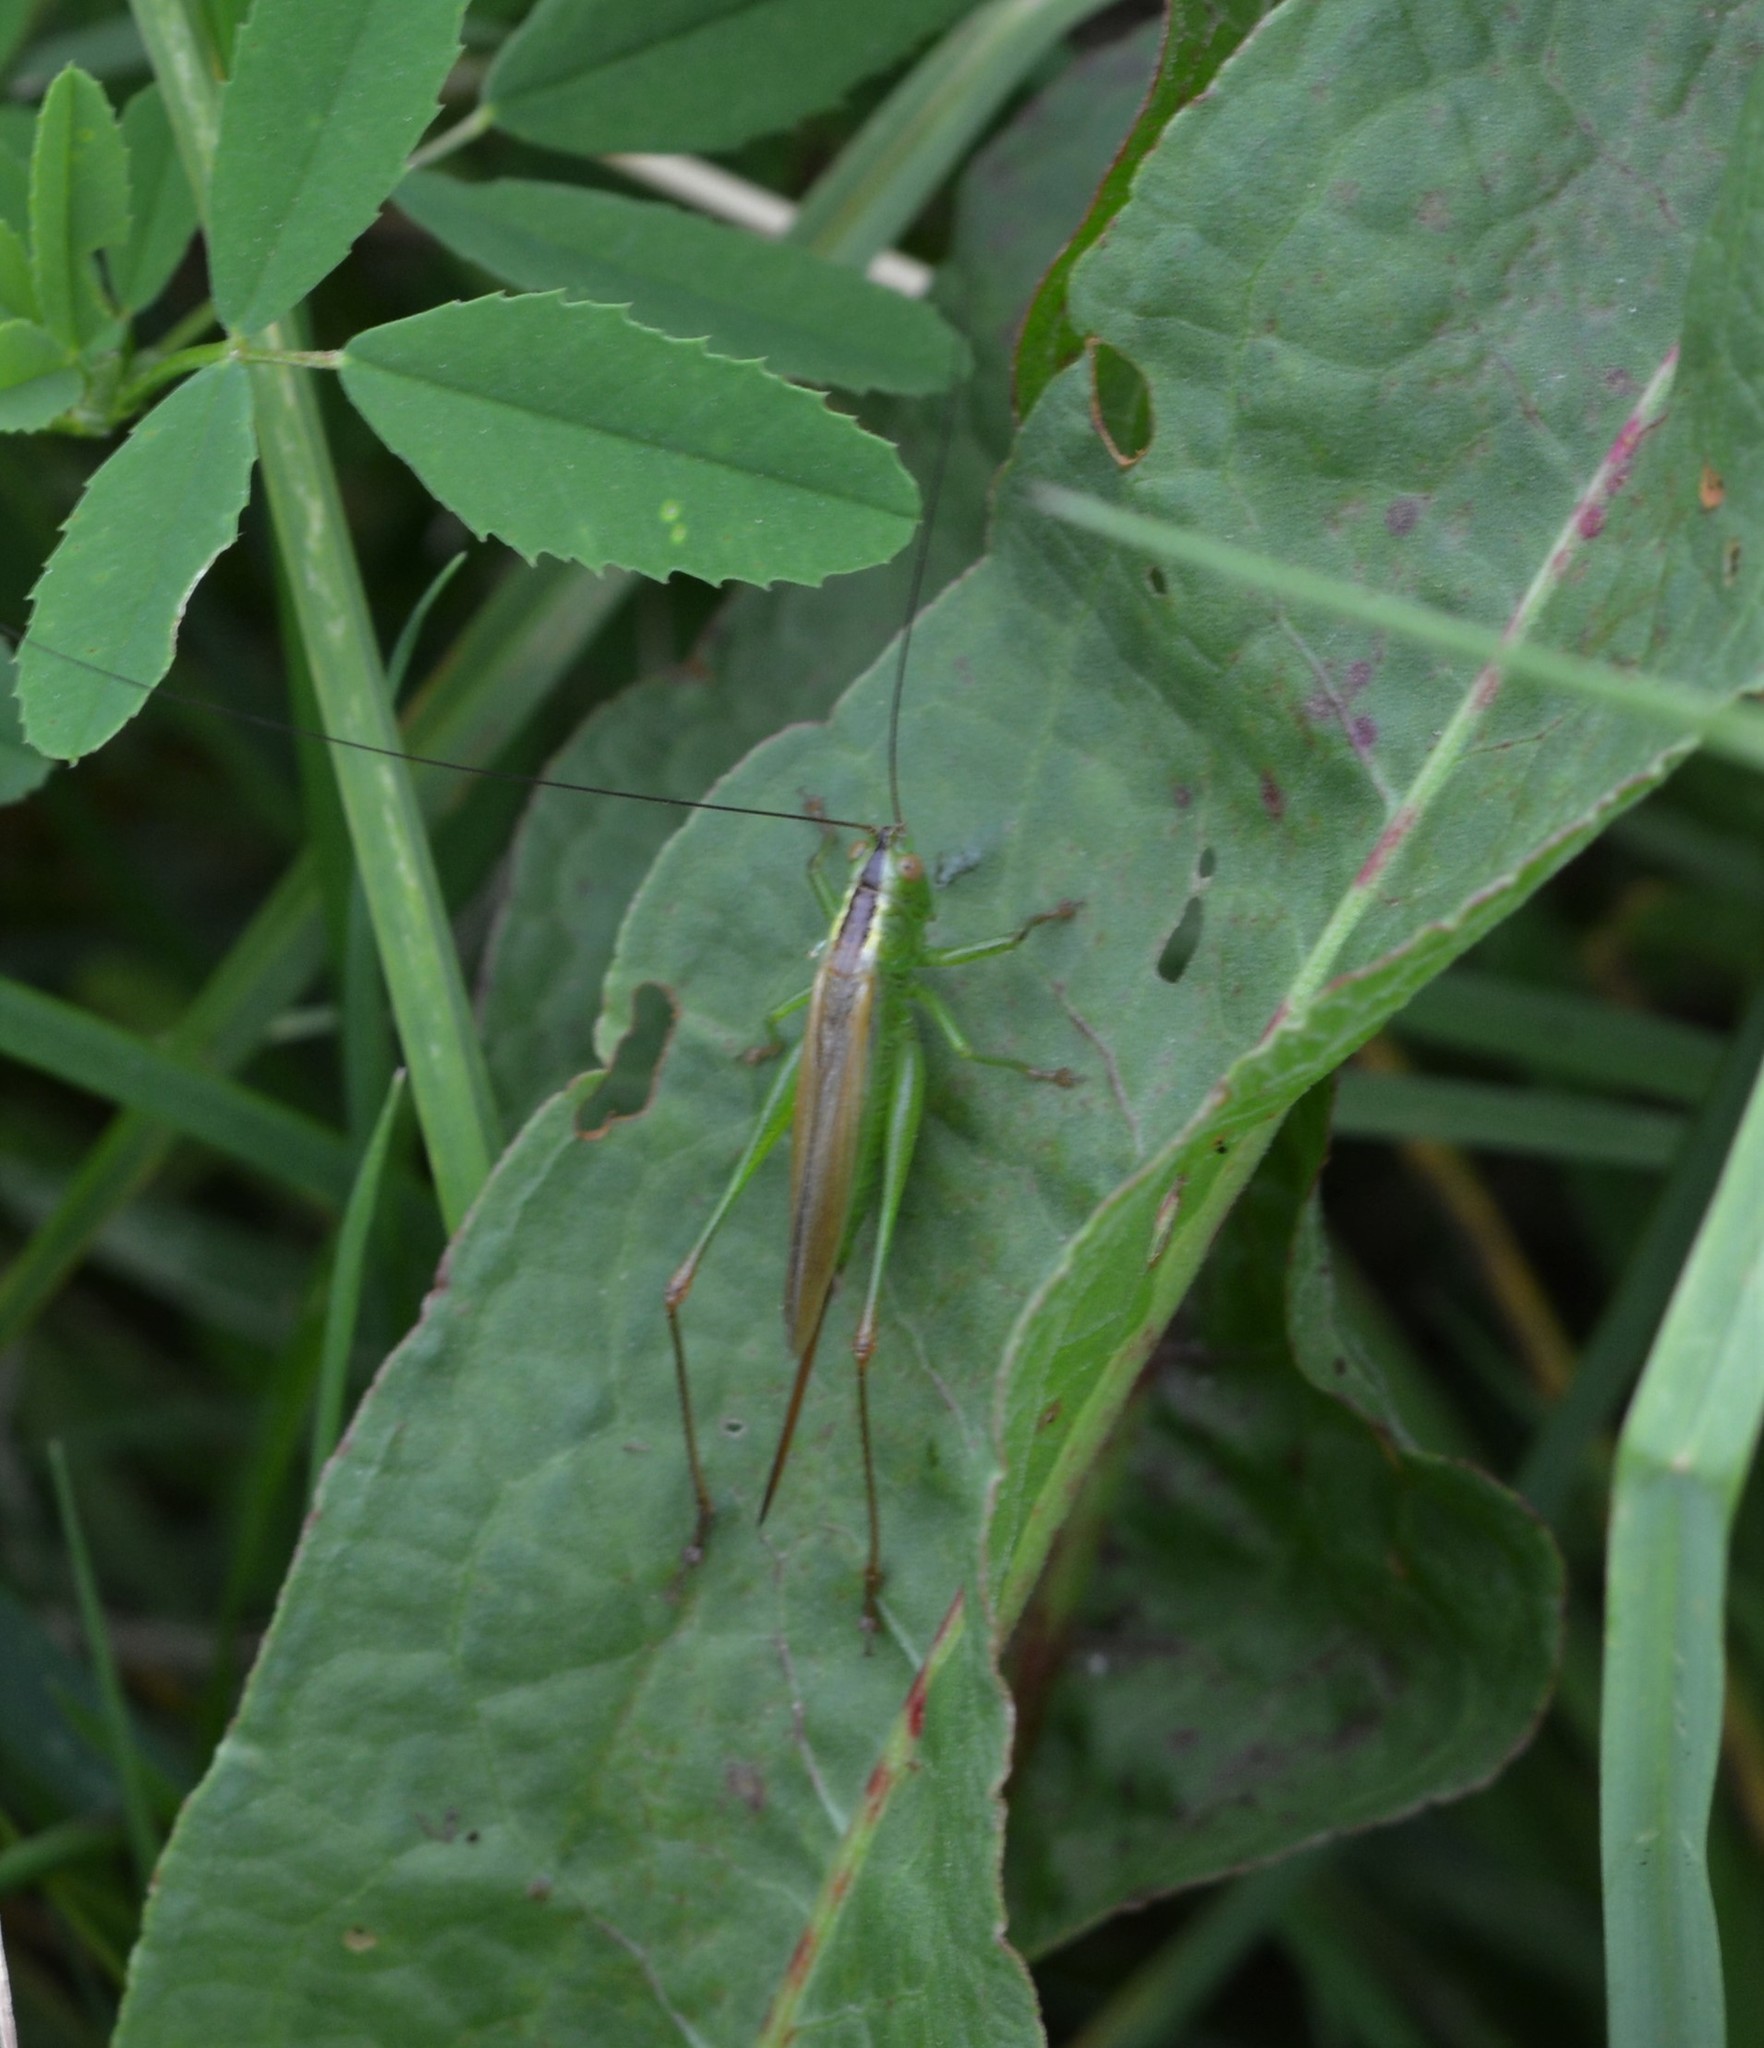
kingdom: Animalia
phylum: Arthropoda
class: Insecta
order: Orthoptera
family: Tettigoniidae
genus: Conocephalus
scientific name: Conocephalus fuscus
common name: Long-winged conehead
